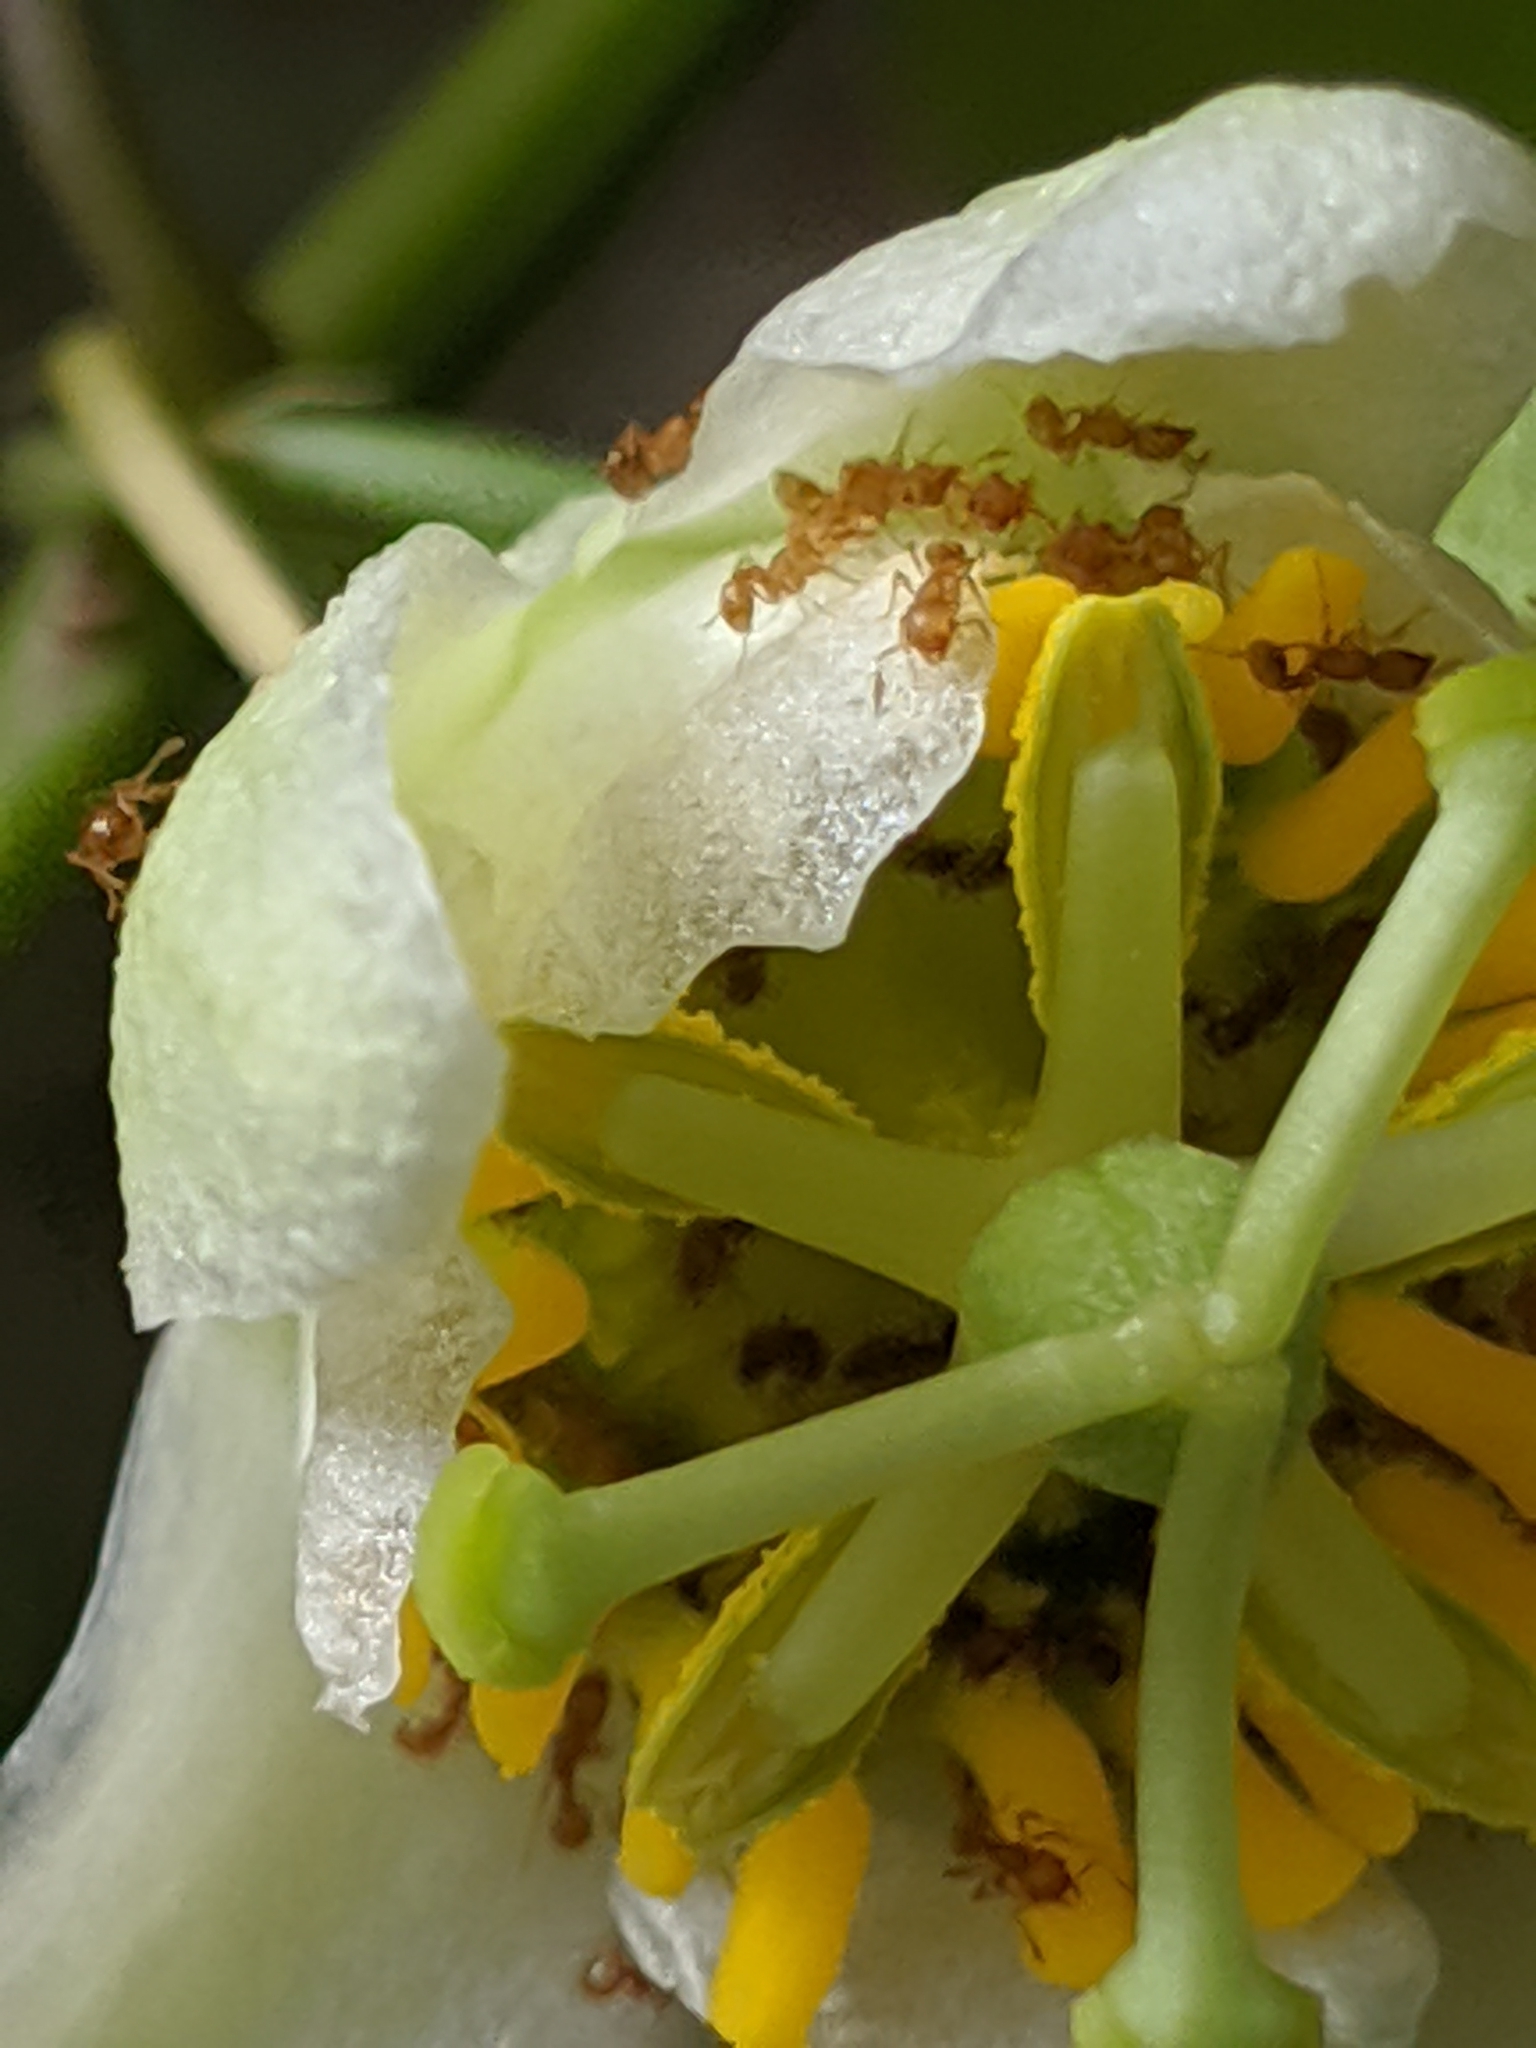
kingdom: Animalia
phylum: Arthropoda
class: Insecta
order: Hymenoptera
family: Formicidae
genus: Wasmannia
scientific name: Wasmannia auropunctata
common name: Little fire ant
